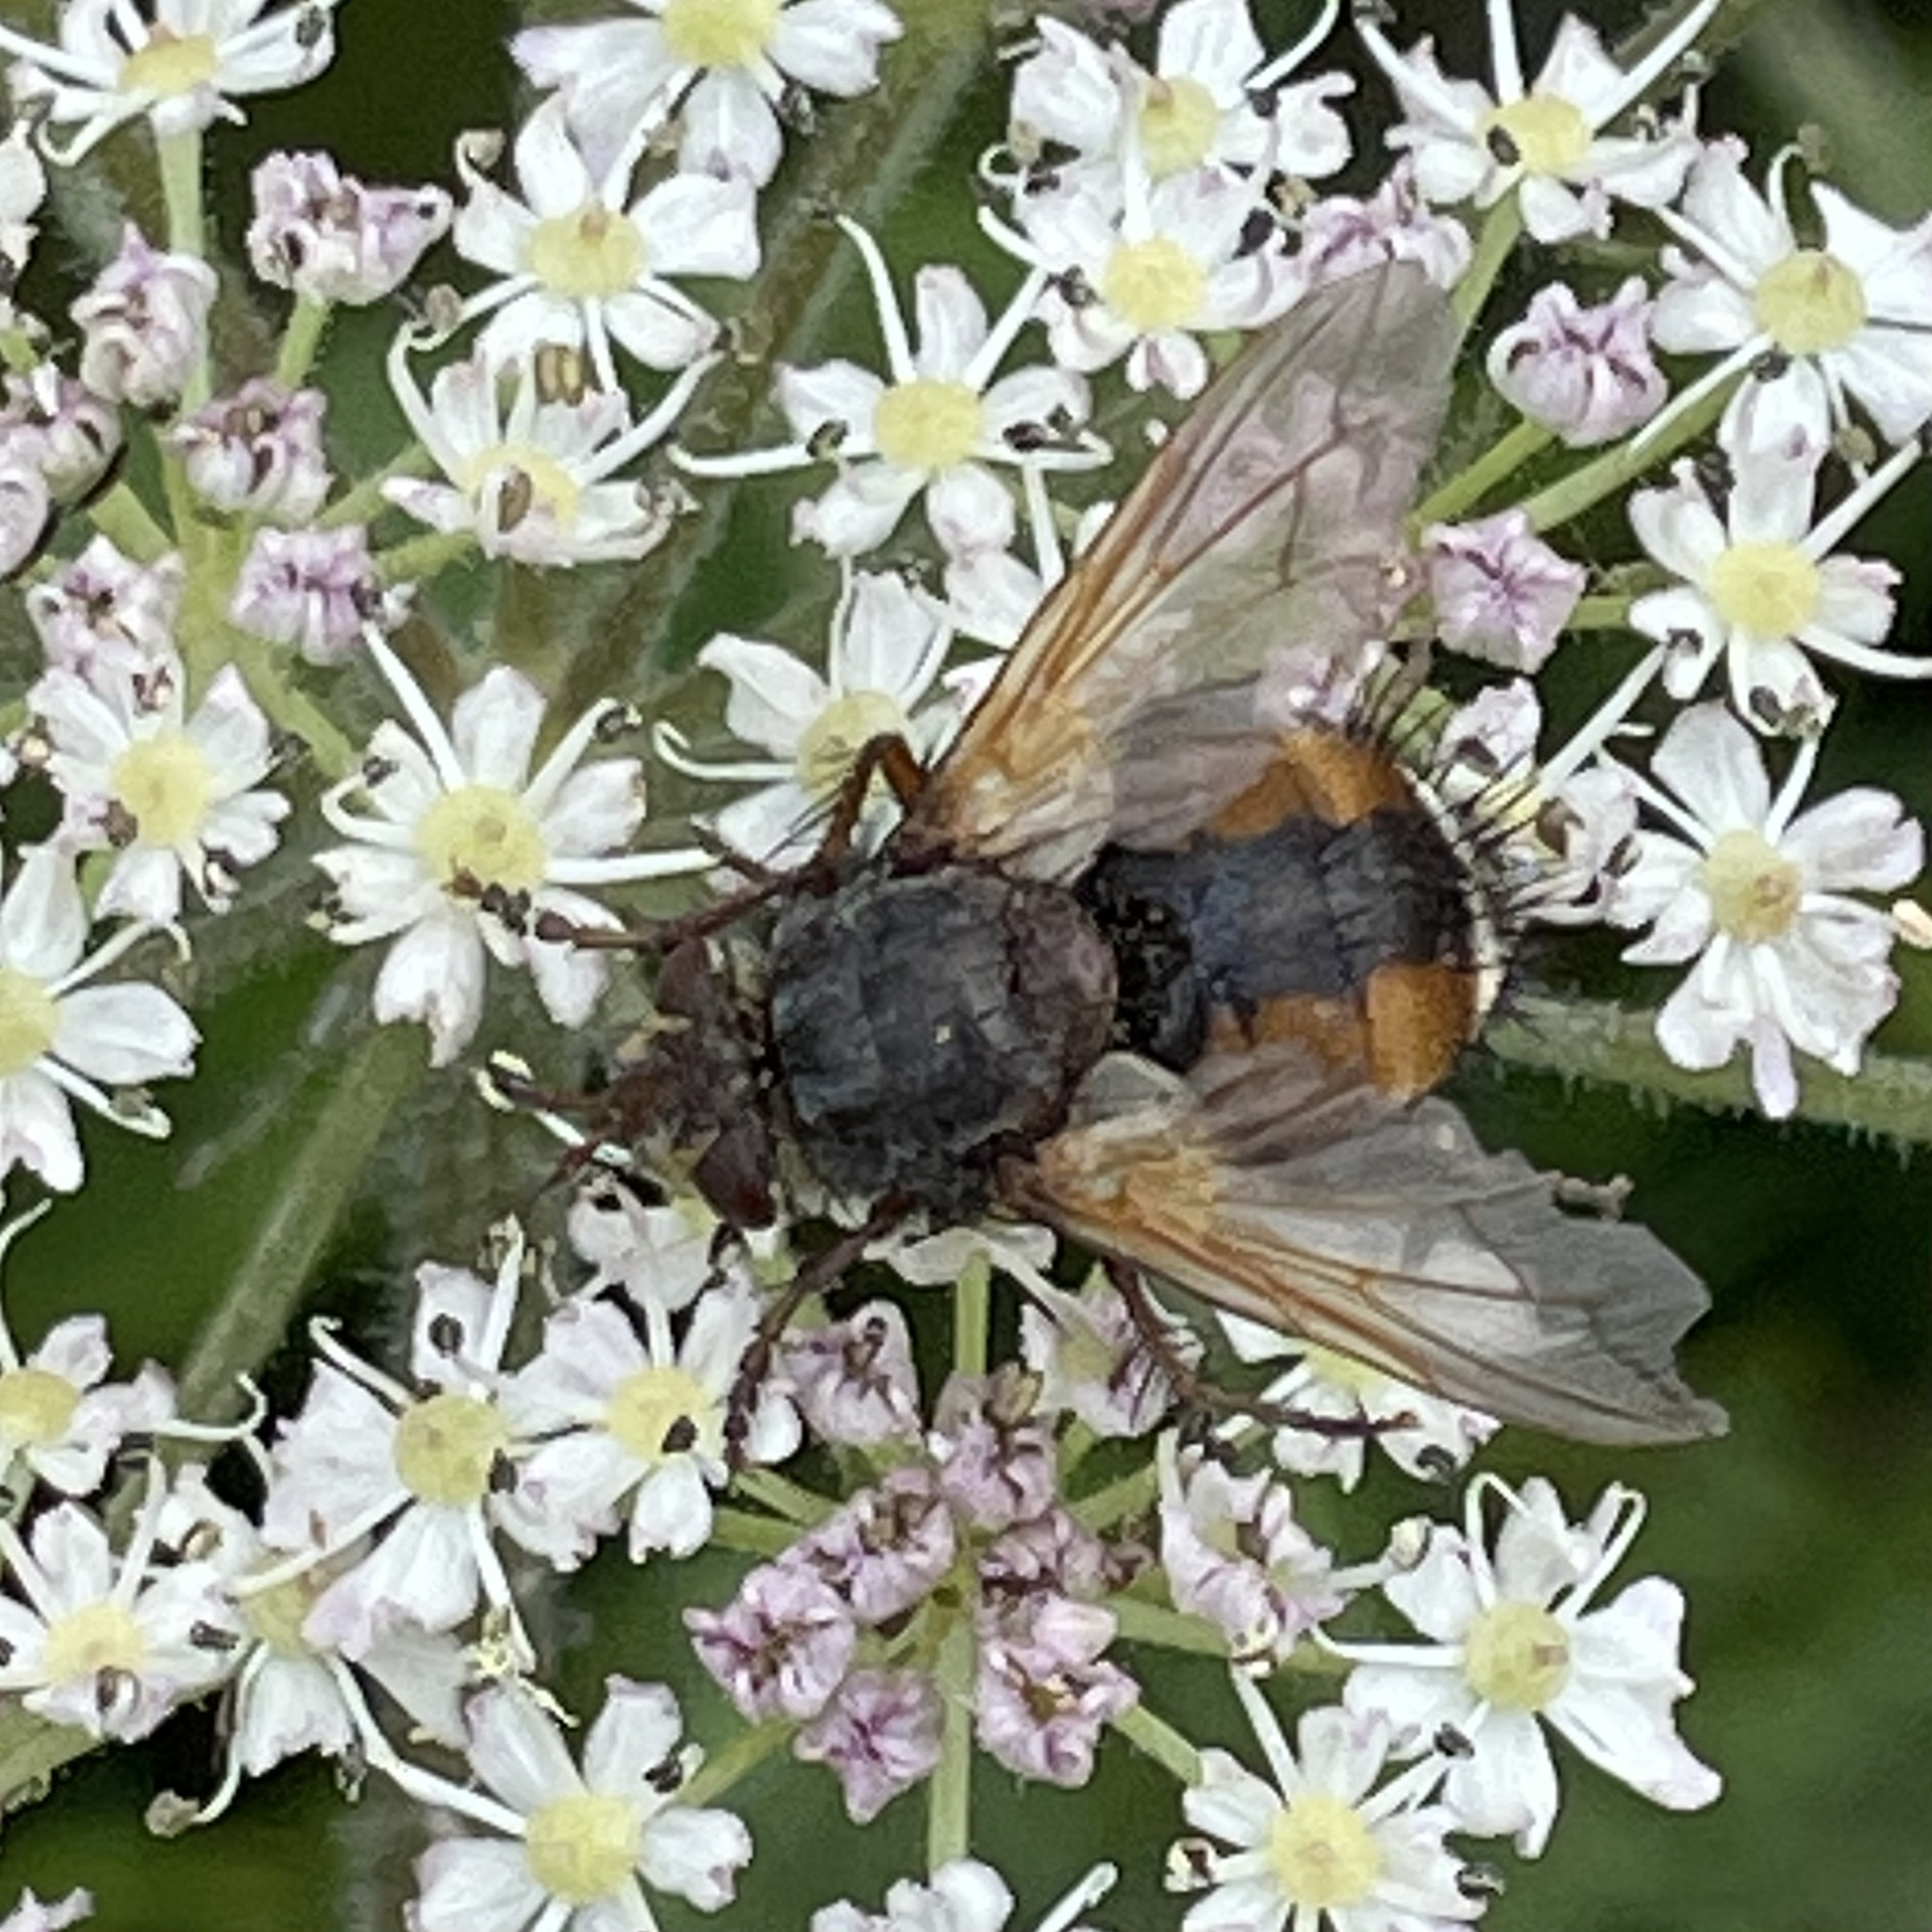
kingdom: Animalia
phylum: Arthropoda
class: Insecta
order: Diptera
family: Tachinidae
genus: Tachina
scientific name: Tachina fera
